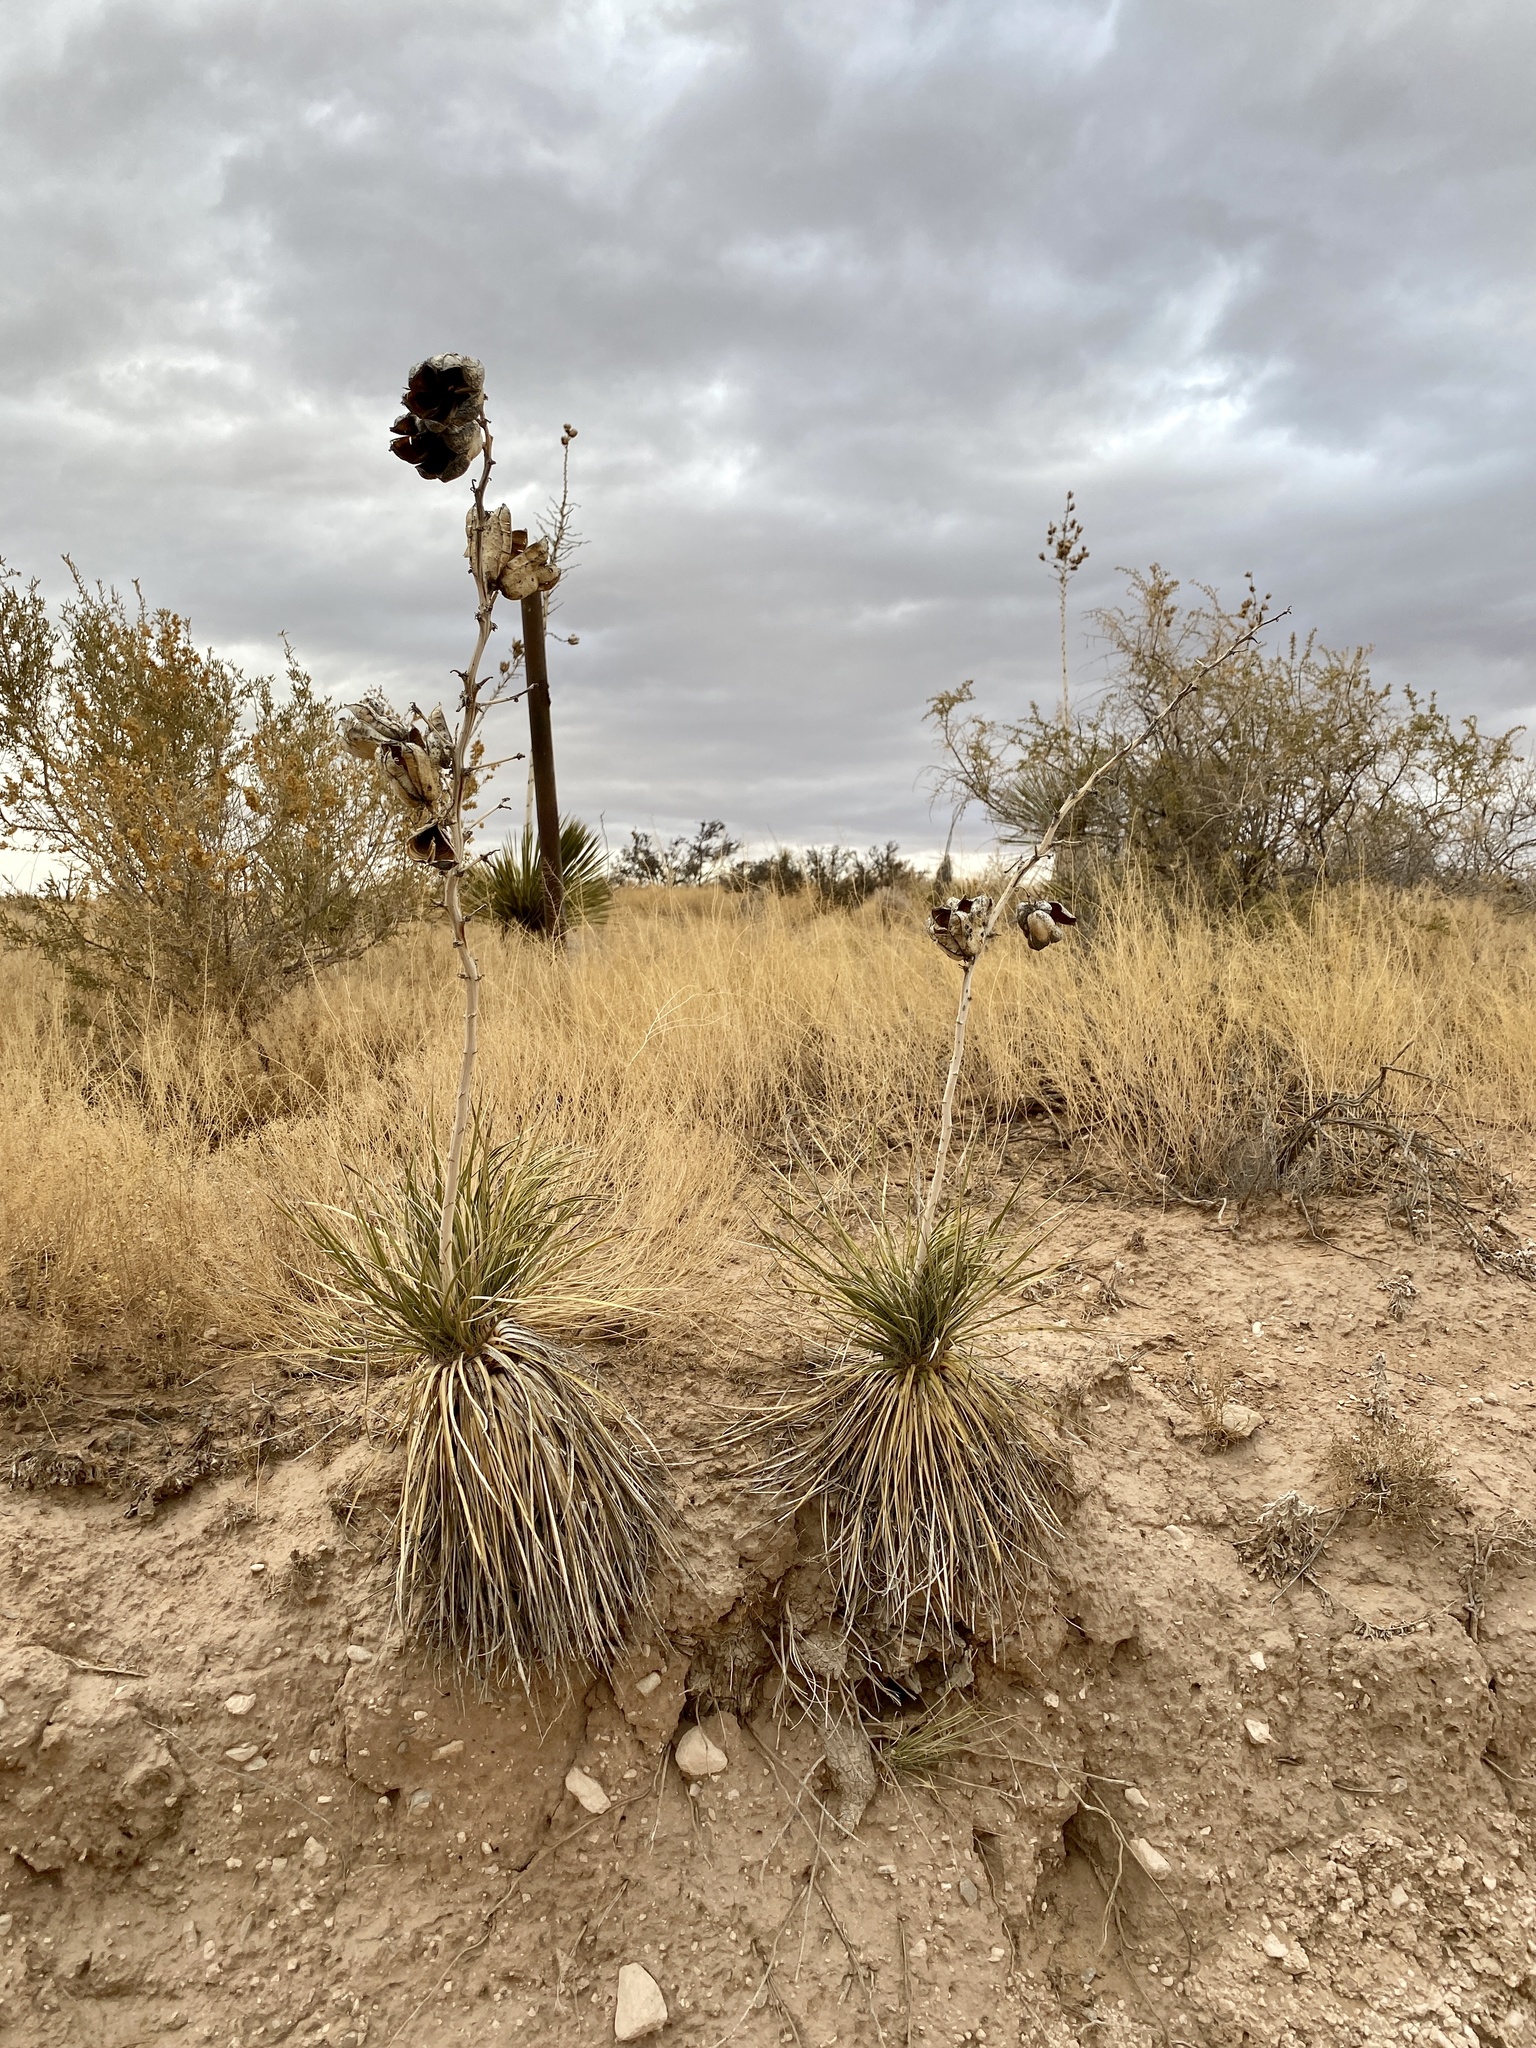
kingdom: Plantae
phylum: Tracheophyta
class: Liliopsida
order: Asparagales
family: Asparagaceae
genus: Yucca
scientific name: Yucca elata
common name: Palmella
